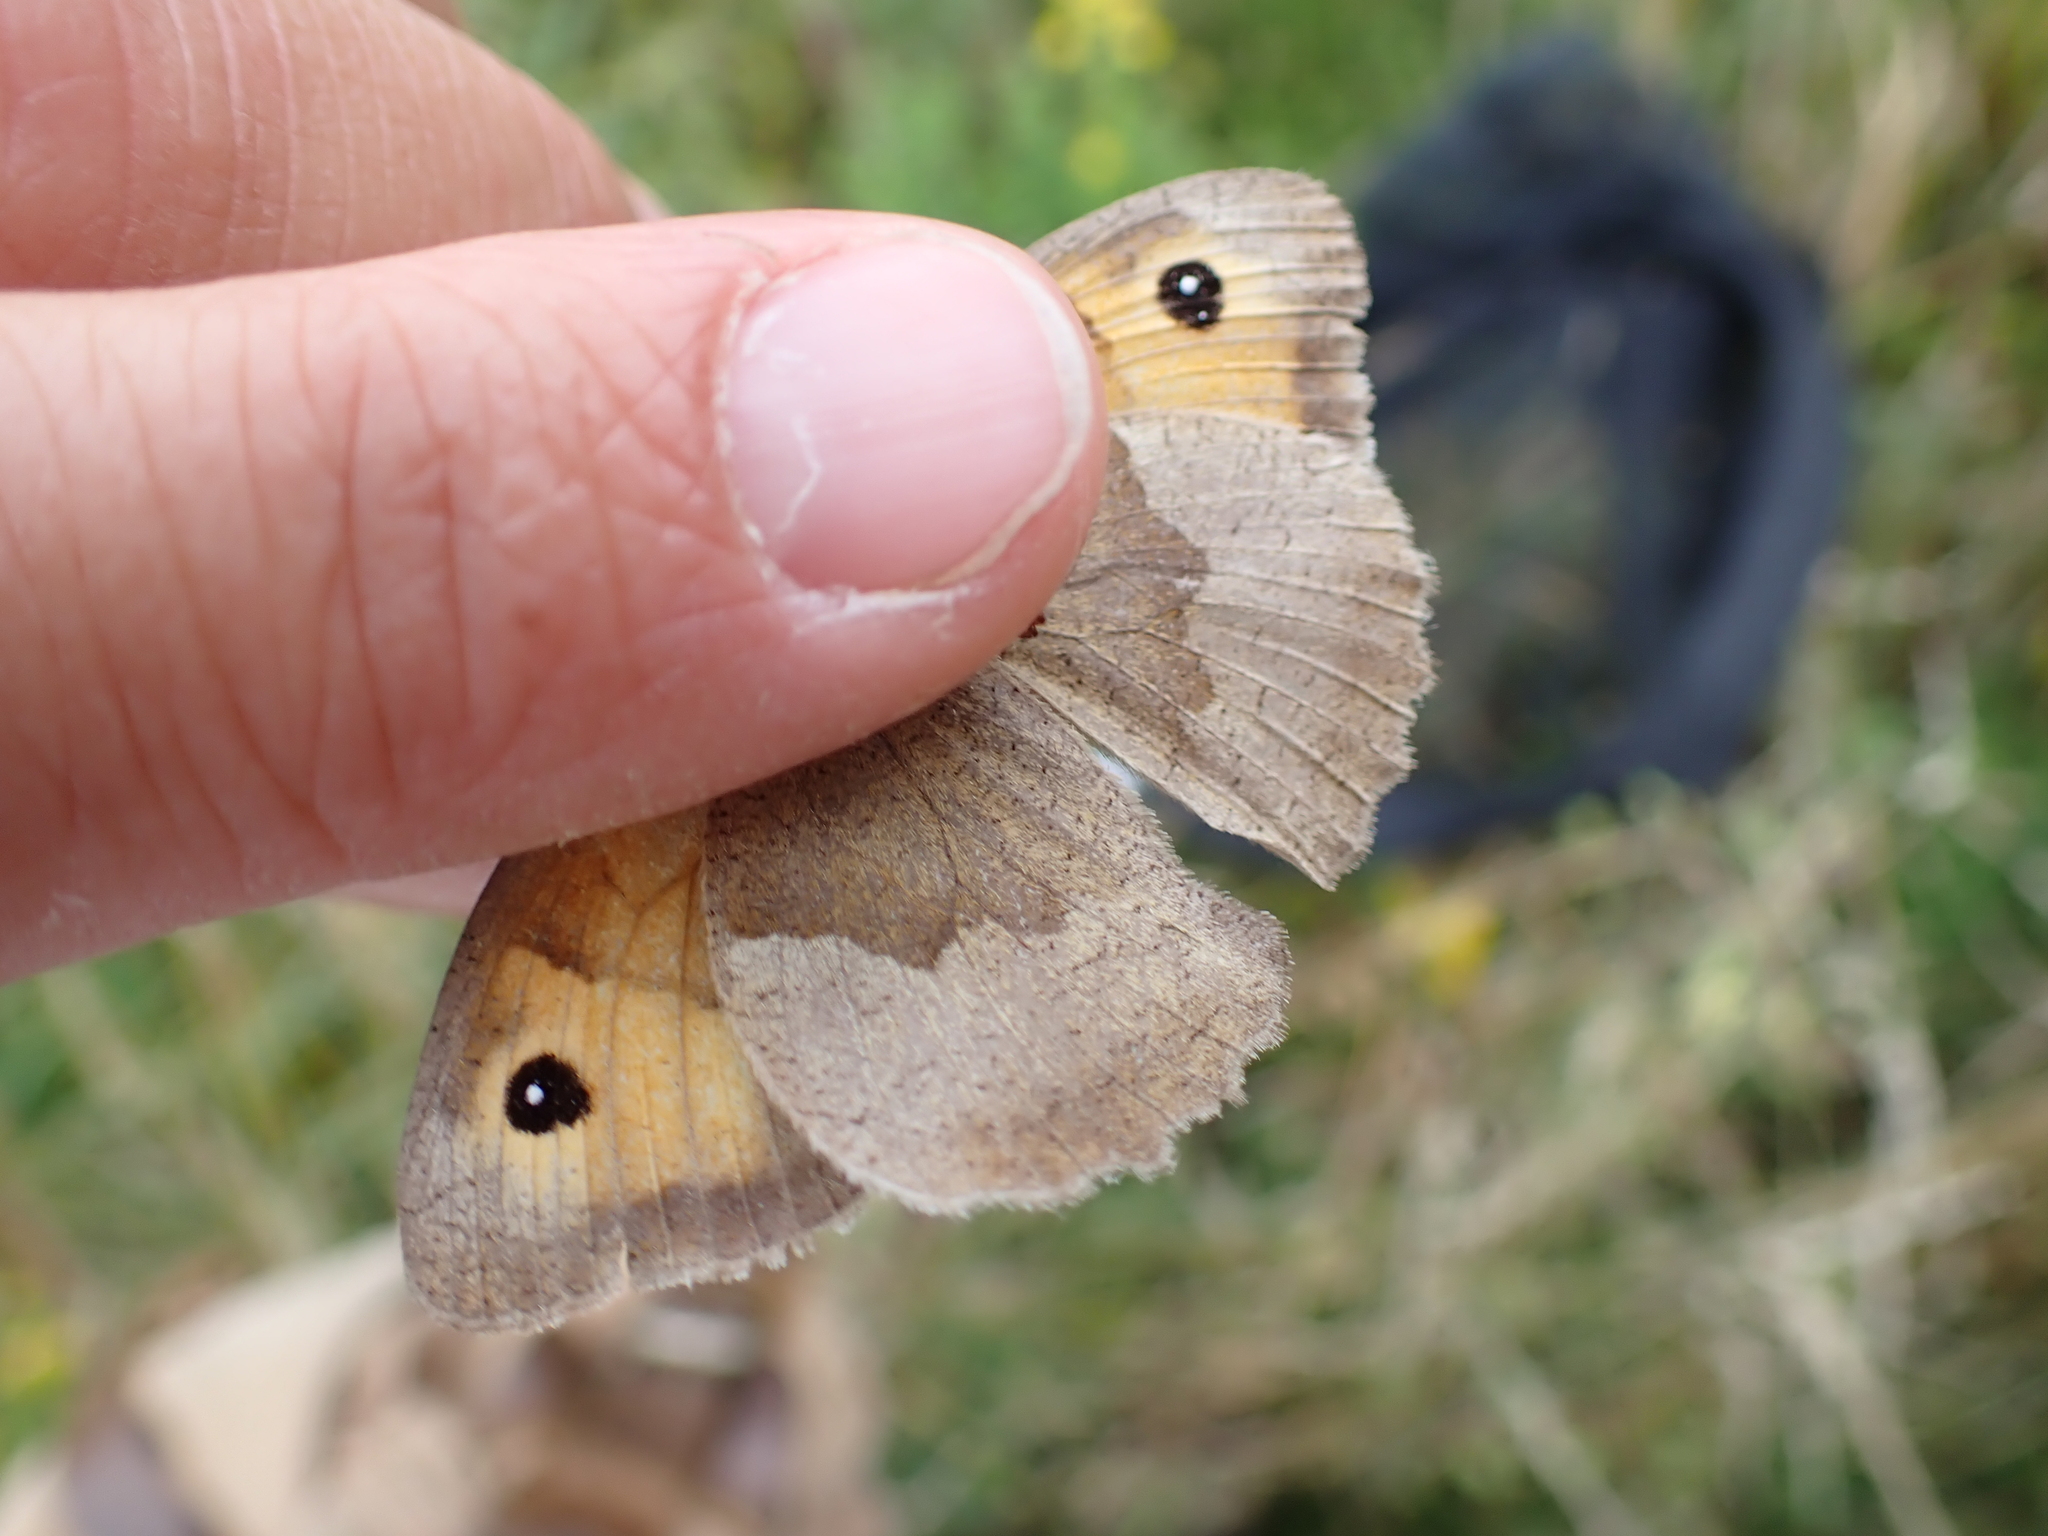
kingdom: Animalia
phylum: Arthropoda
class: Insecta
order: Lepidoptera
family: Nymphalidae
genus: Maniola
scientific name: Maniola jurtina
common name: Meadow brown
